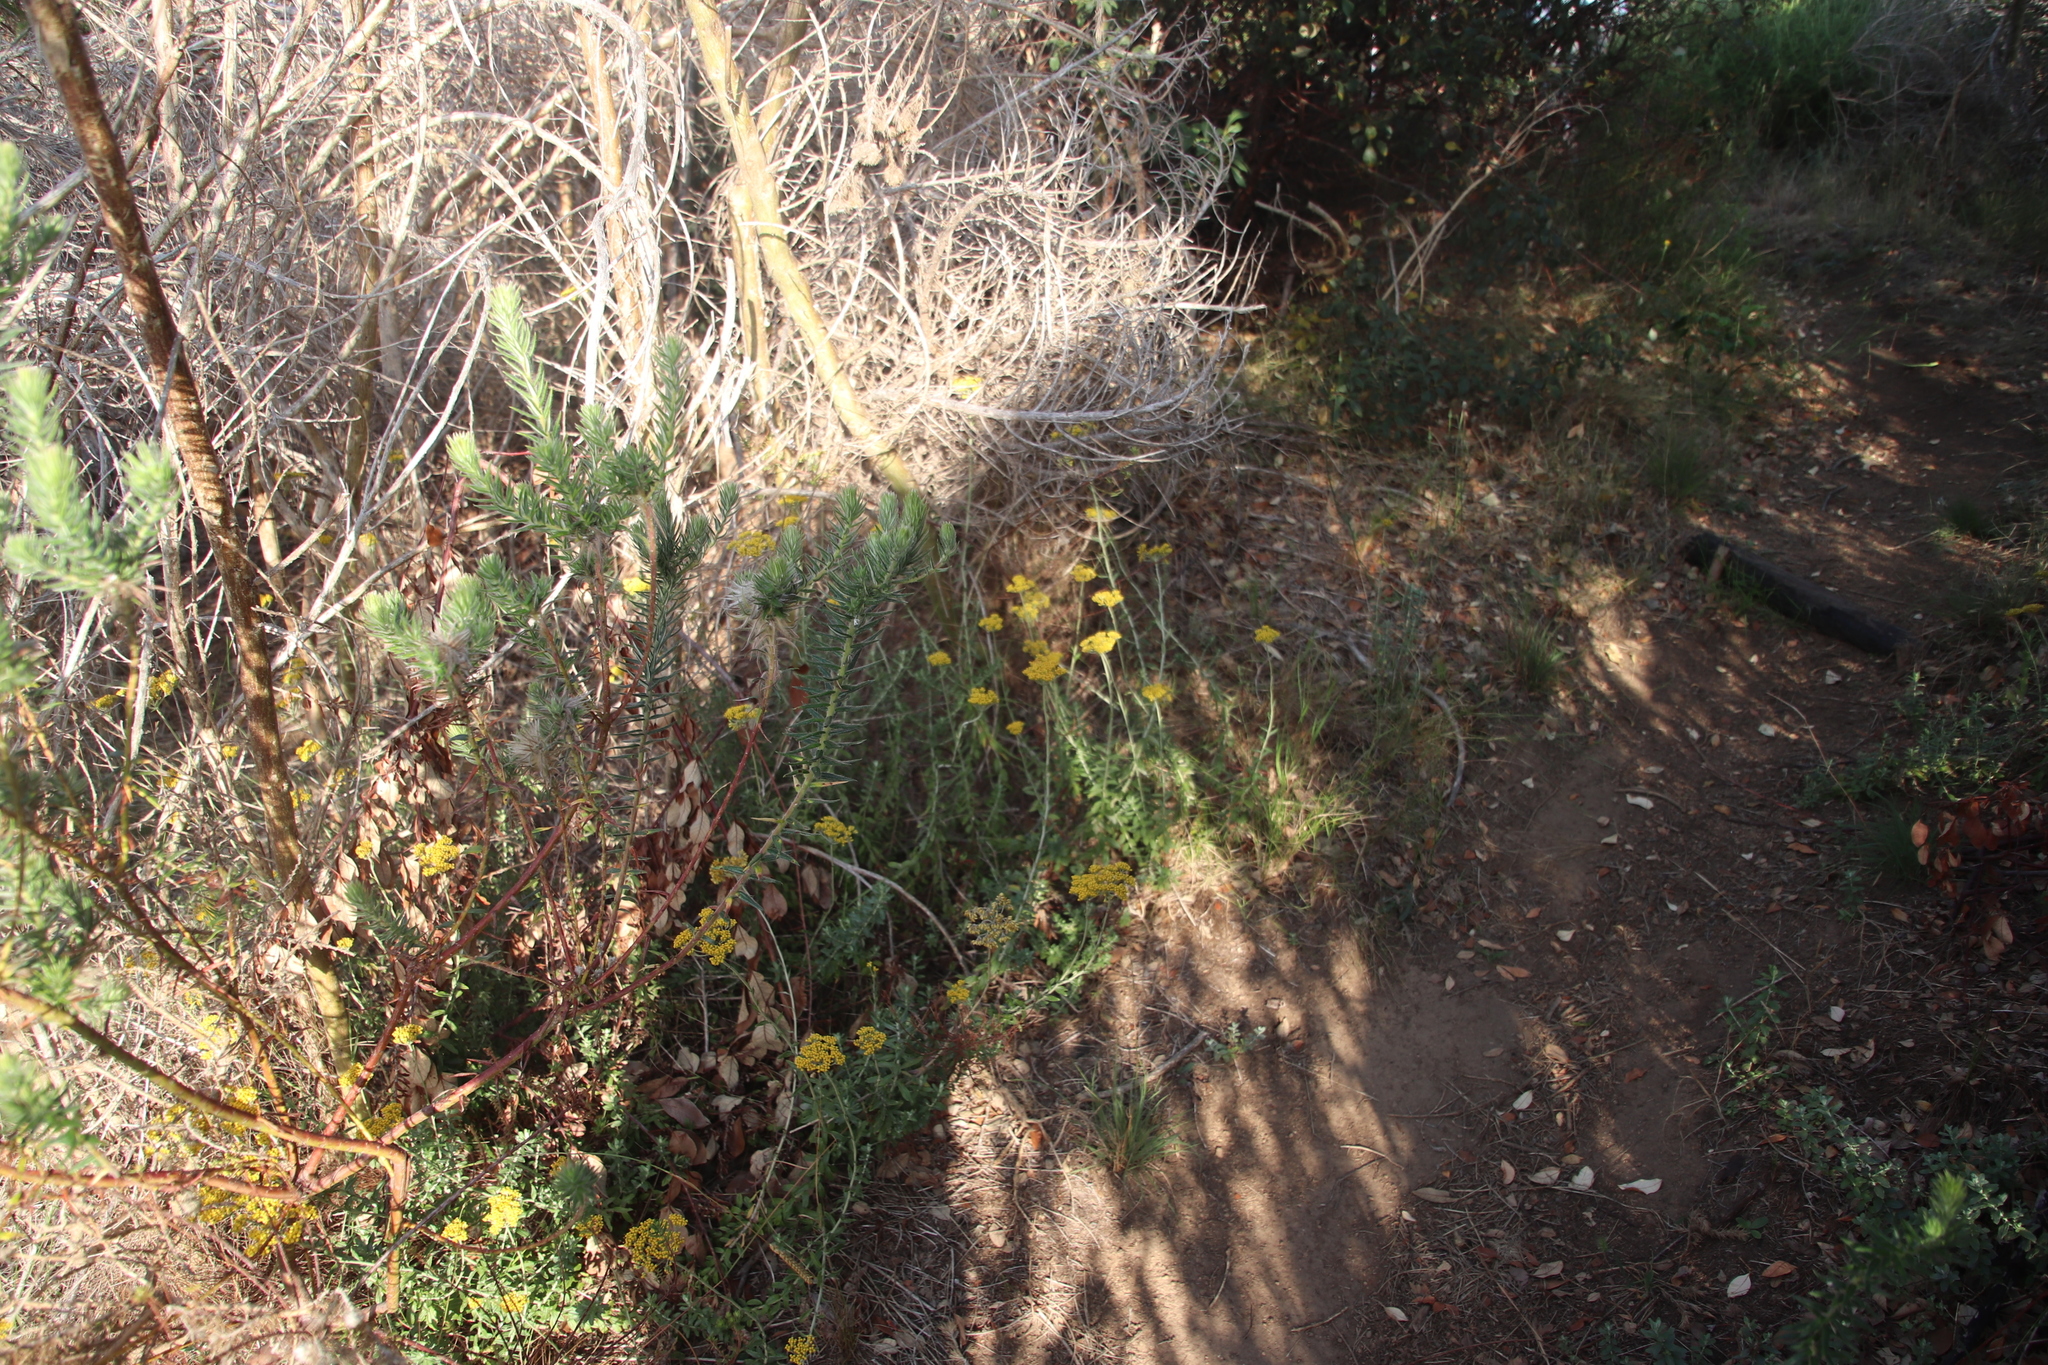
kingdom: Plantae
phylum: Tracheophyta
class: Magnoliopsida
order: Asterales
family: Asteraceae
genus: Helichrysum
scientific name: Helichrysum cymosum
